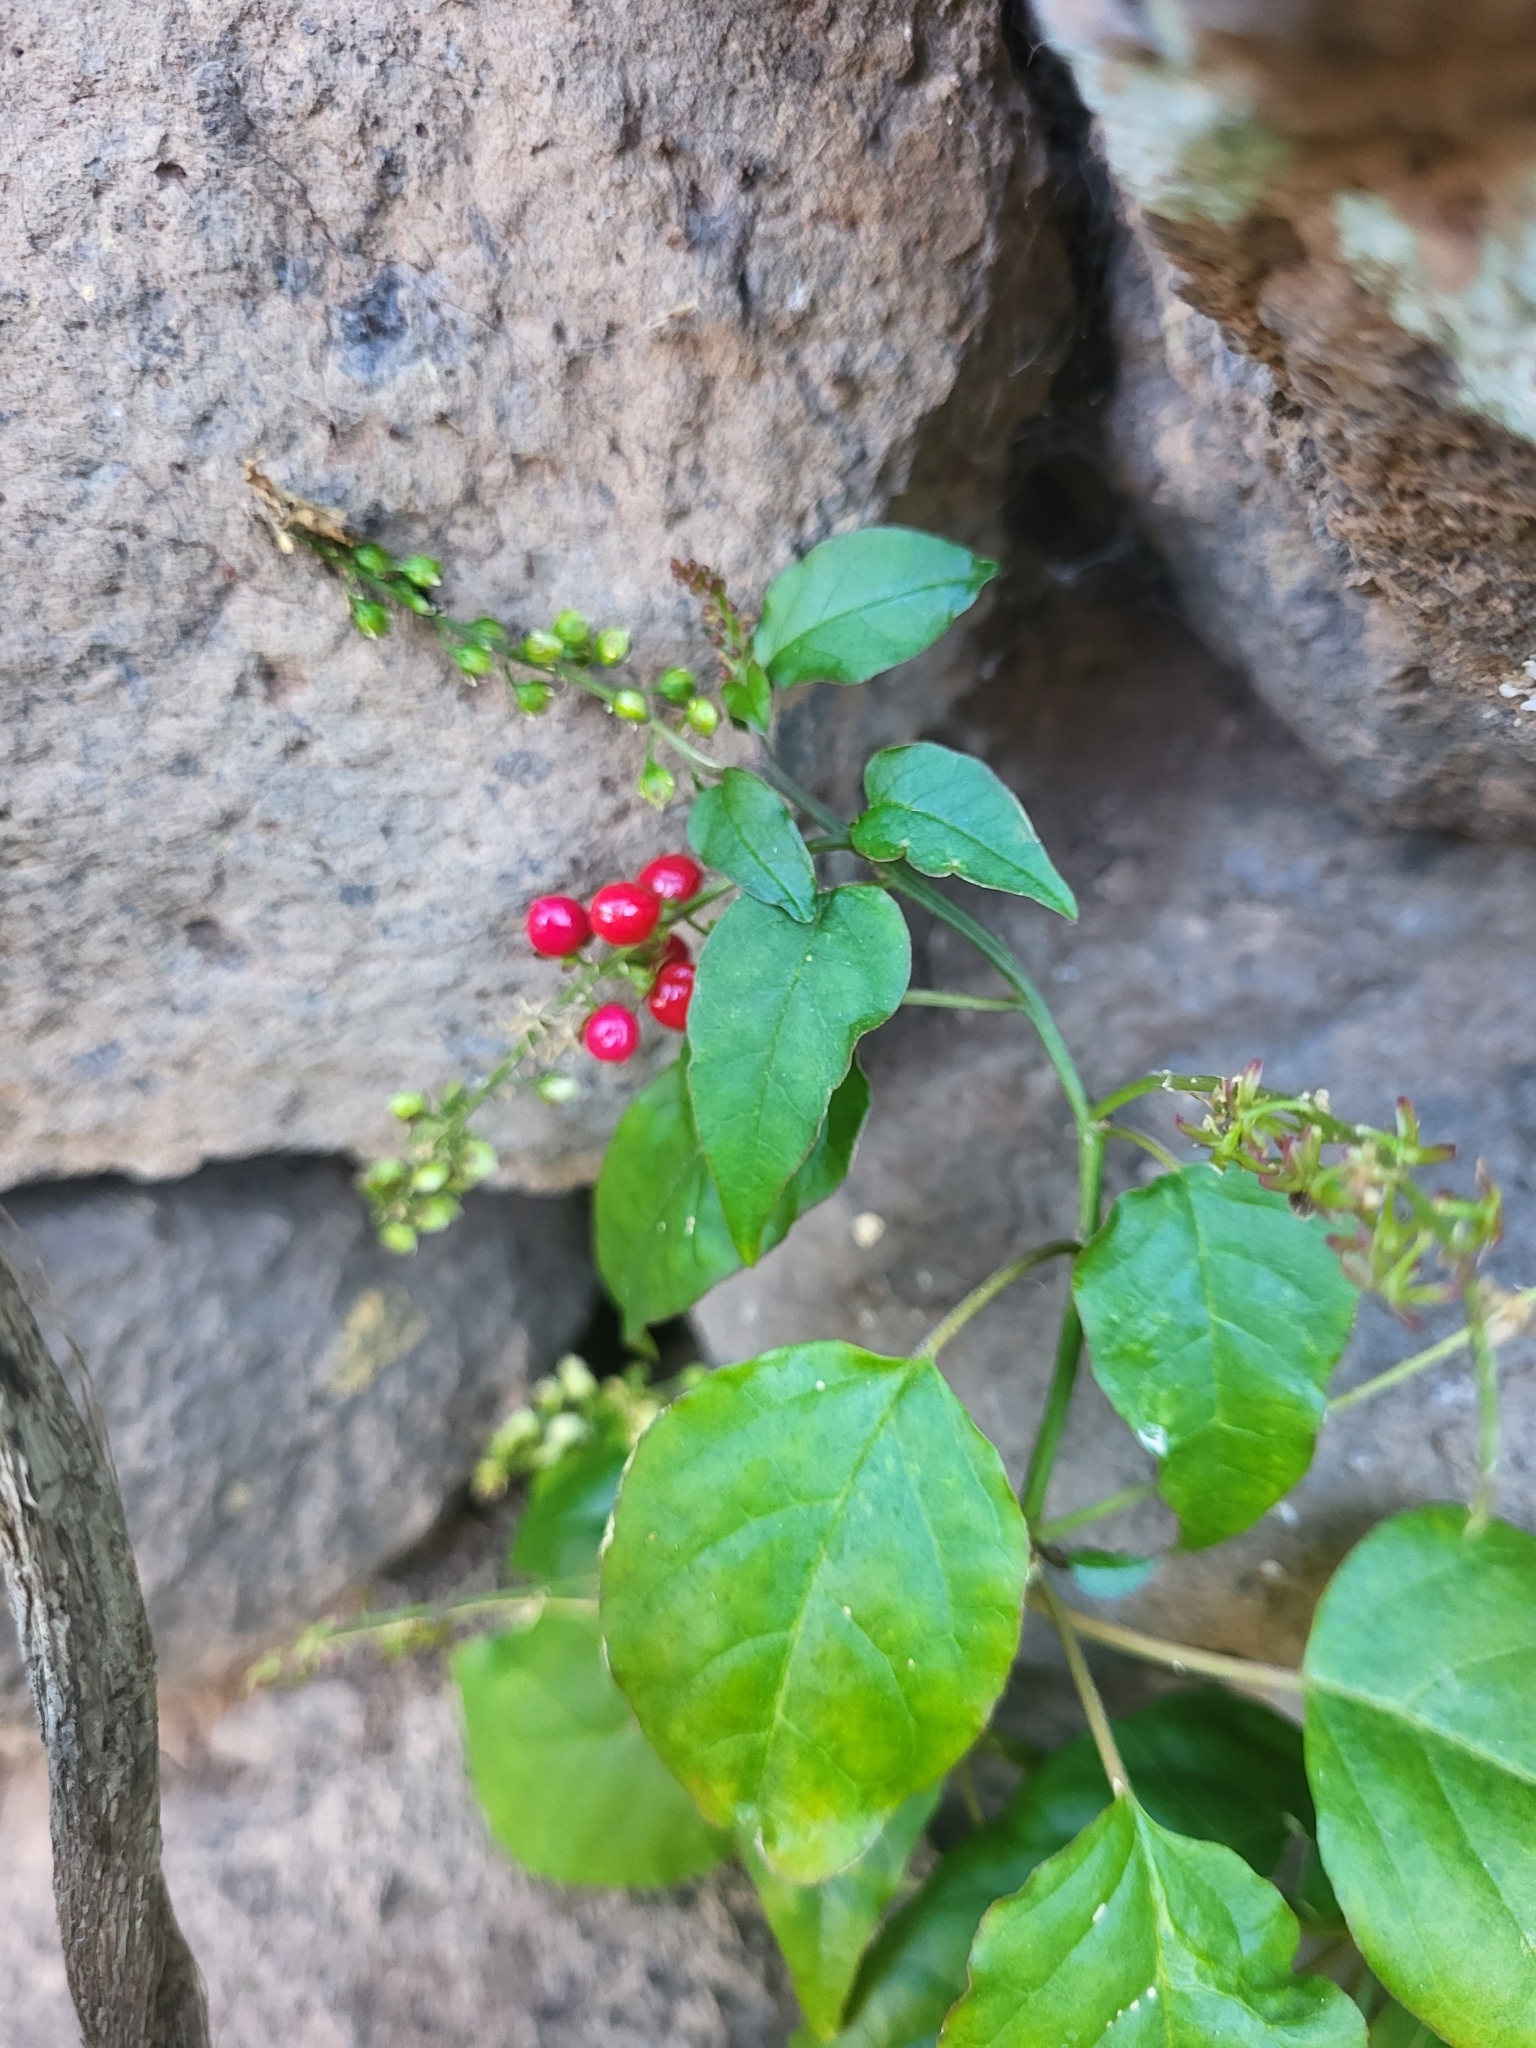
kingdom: Plantae
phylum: Tracheophyta
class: Magnoliopsida
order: Caryophyllales
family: Phytolaccaceae
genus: Rivina
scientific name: Rivina humilis
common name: Rougeplant
